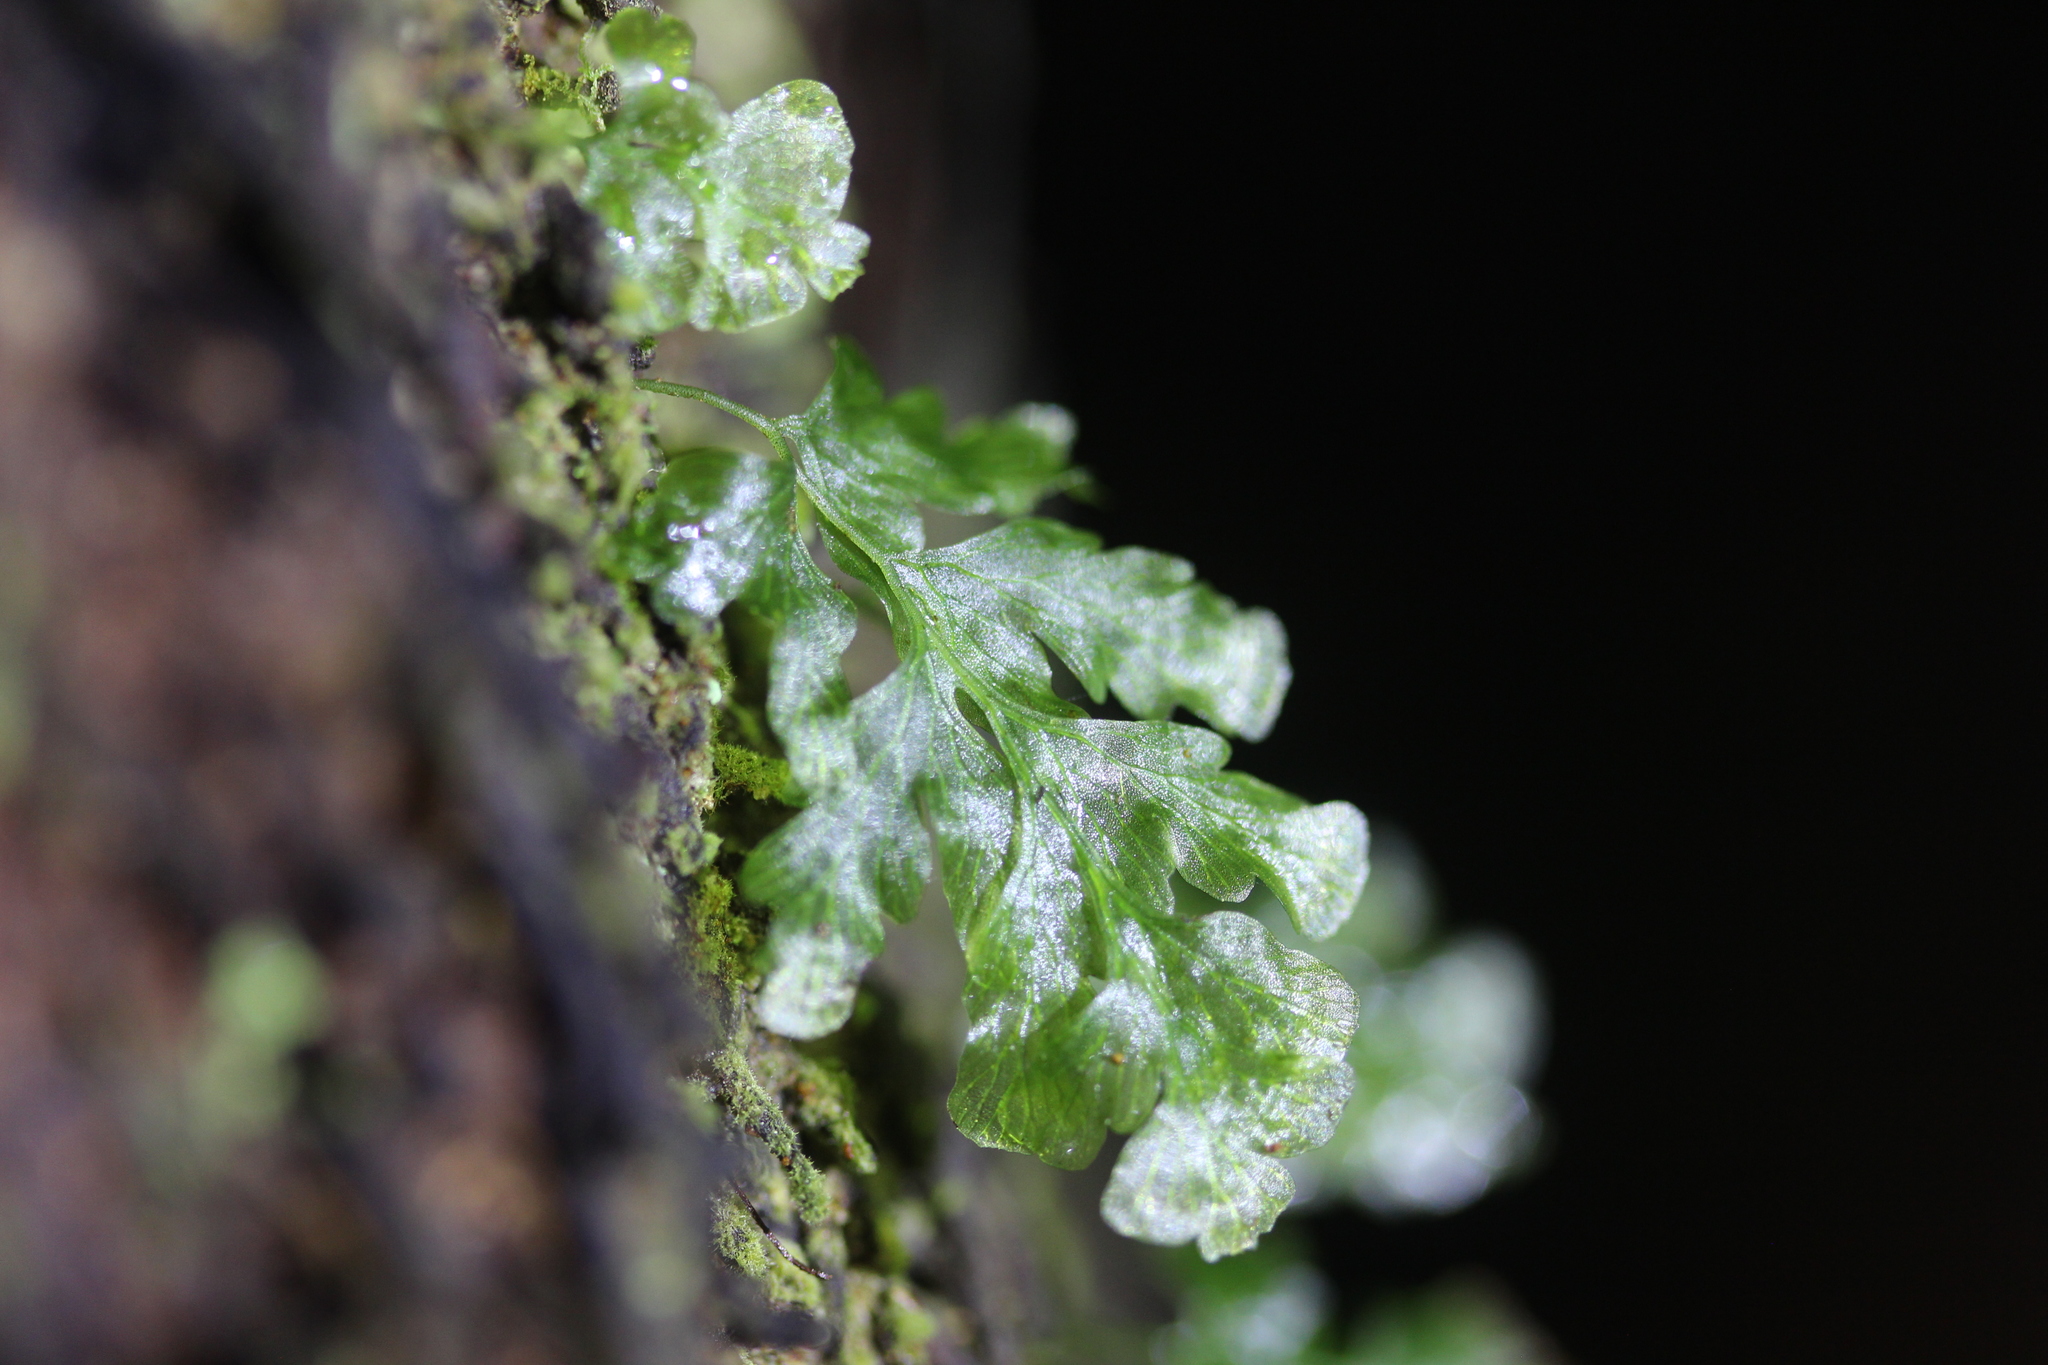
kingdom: Plantae
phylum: Tracheophyta
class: Polypodiopsida
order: Hymenophyllales
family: Hymenophyllaceae
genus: Polyphlebium
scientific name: Polyphlebium venosum
